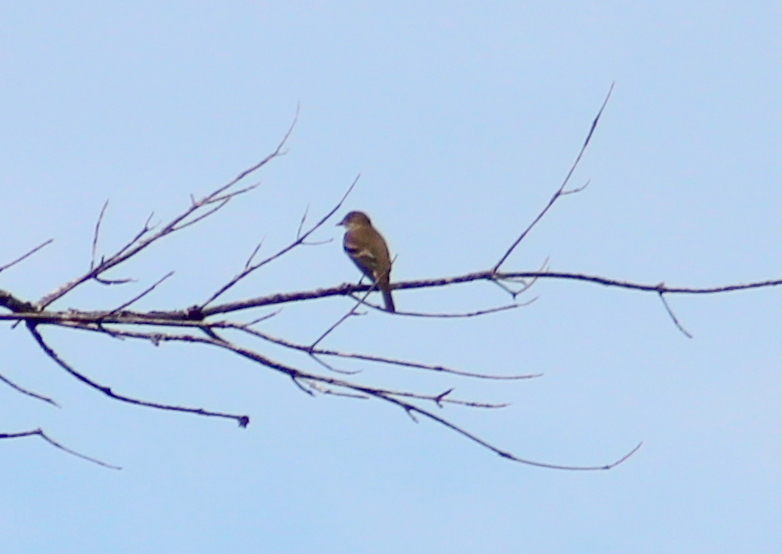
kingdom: Animalia
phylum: Chordata
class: Aves
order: Passeriformes
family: Tyrannidae
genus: Empidonax
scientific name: Empidonax alnorum
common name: Alder flycatcher
